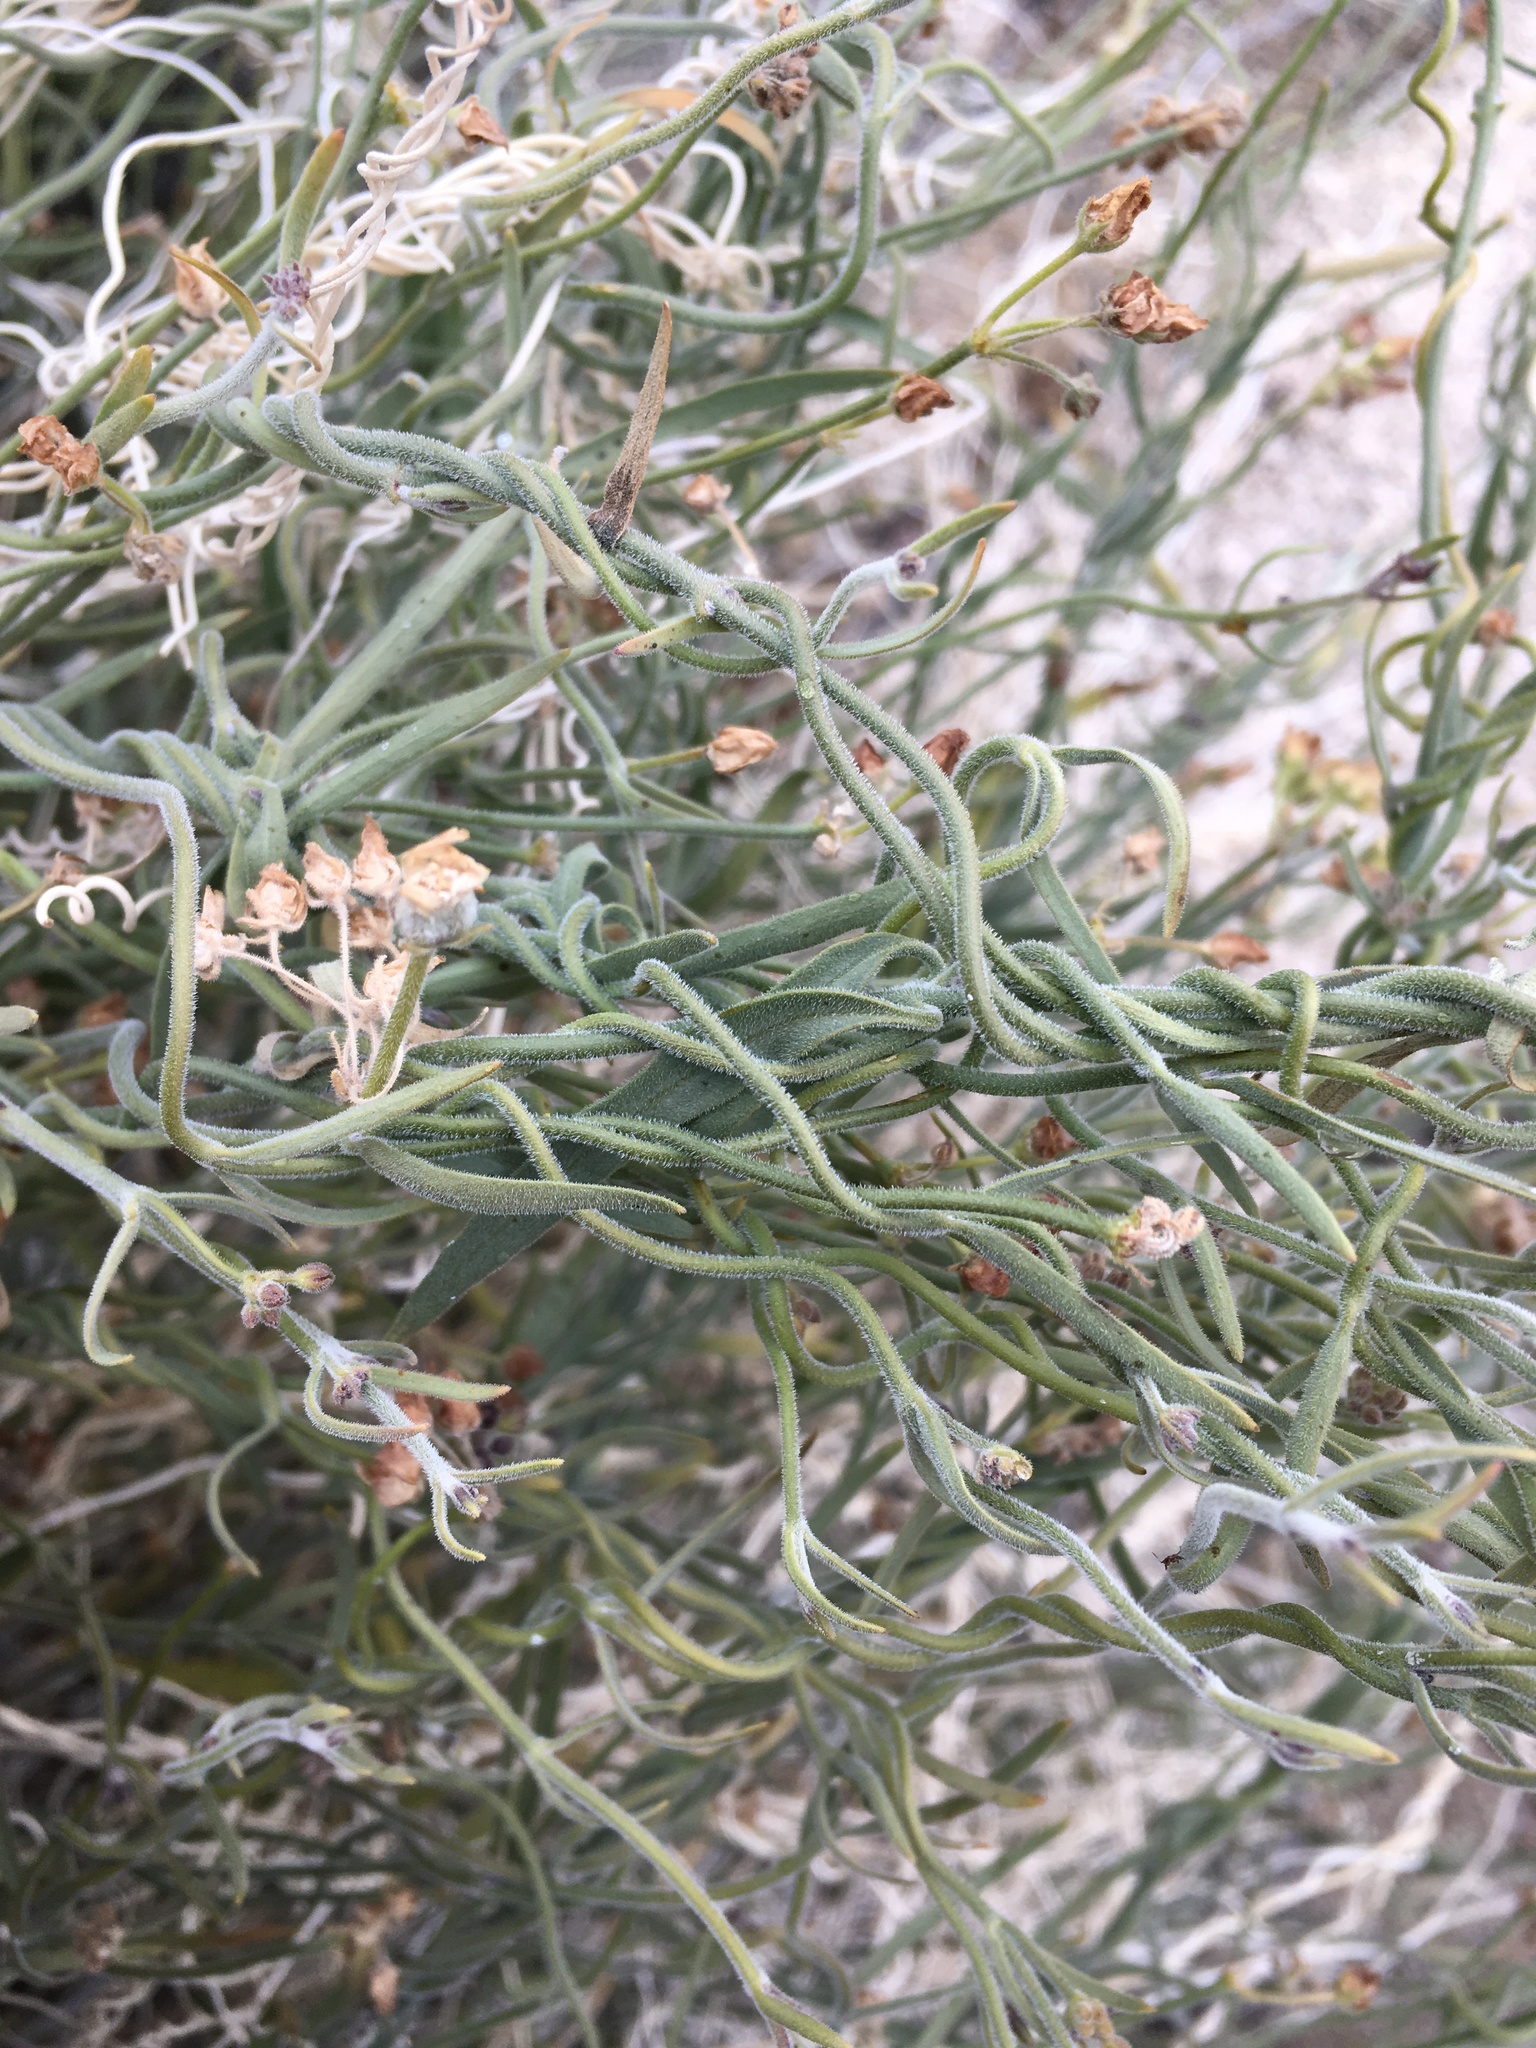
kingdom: Plantae
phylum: Tracheophyta
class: Magnoliopsida
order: Gentianales
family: Apocynaceae
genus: Funastrum
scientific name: Funastrum hirtellum
